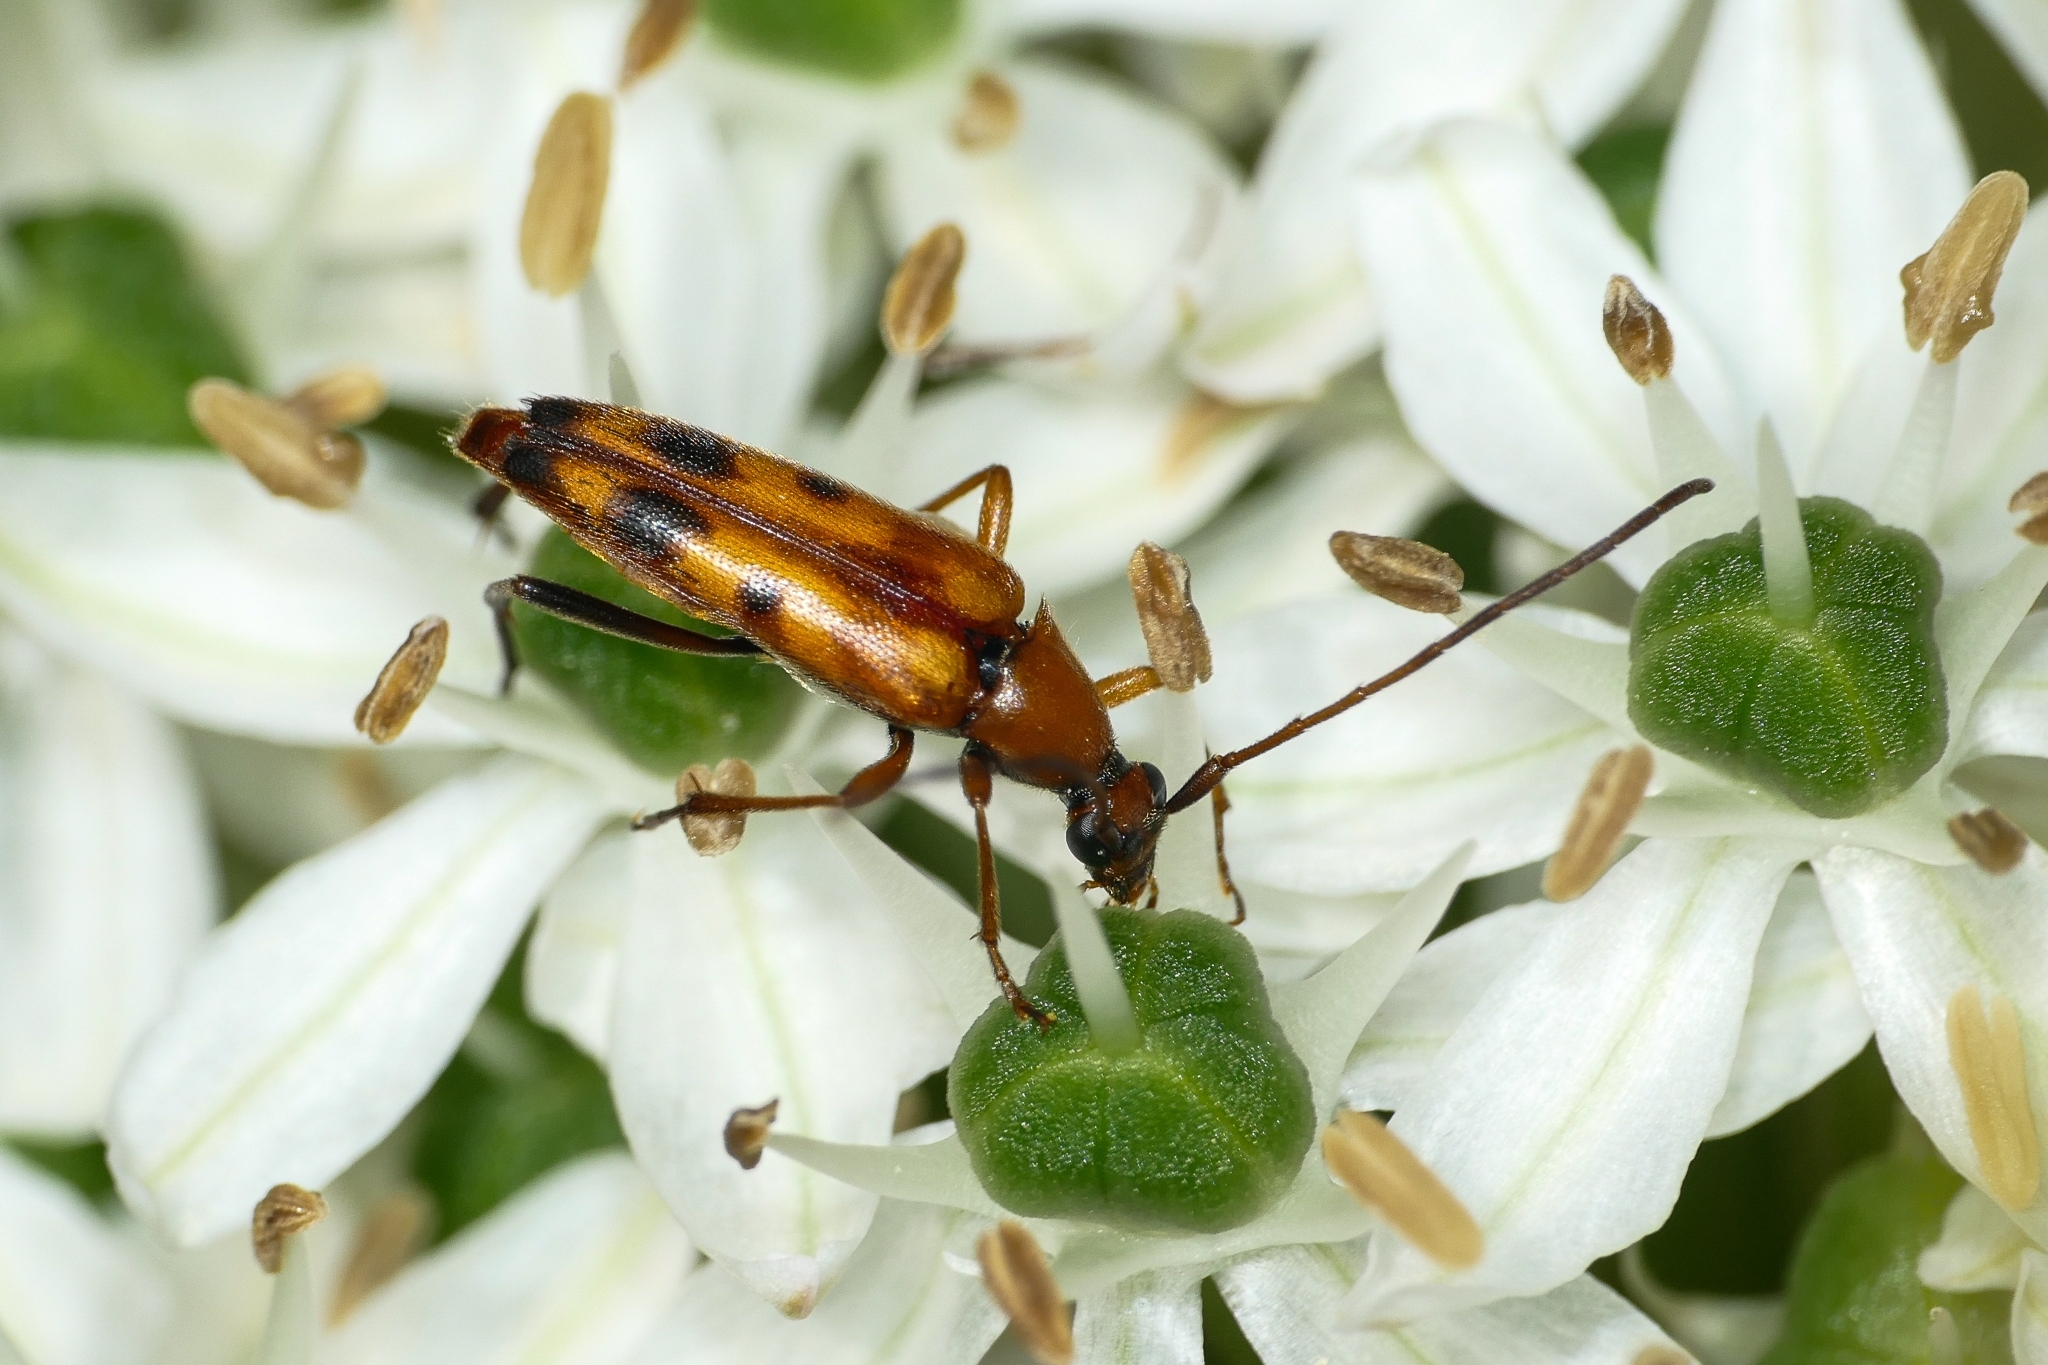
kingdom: Animalia
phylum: Arthropoda
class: Insecta
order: Coleoptera
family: Cerambycidae
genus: Stenurella
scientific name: Stenurella septempunctata
